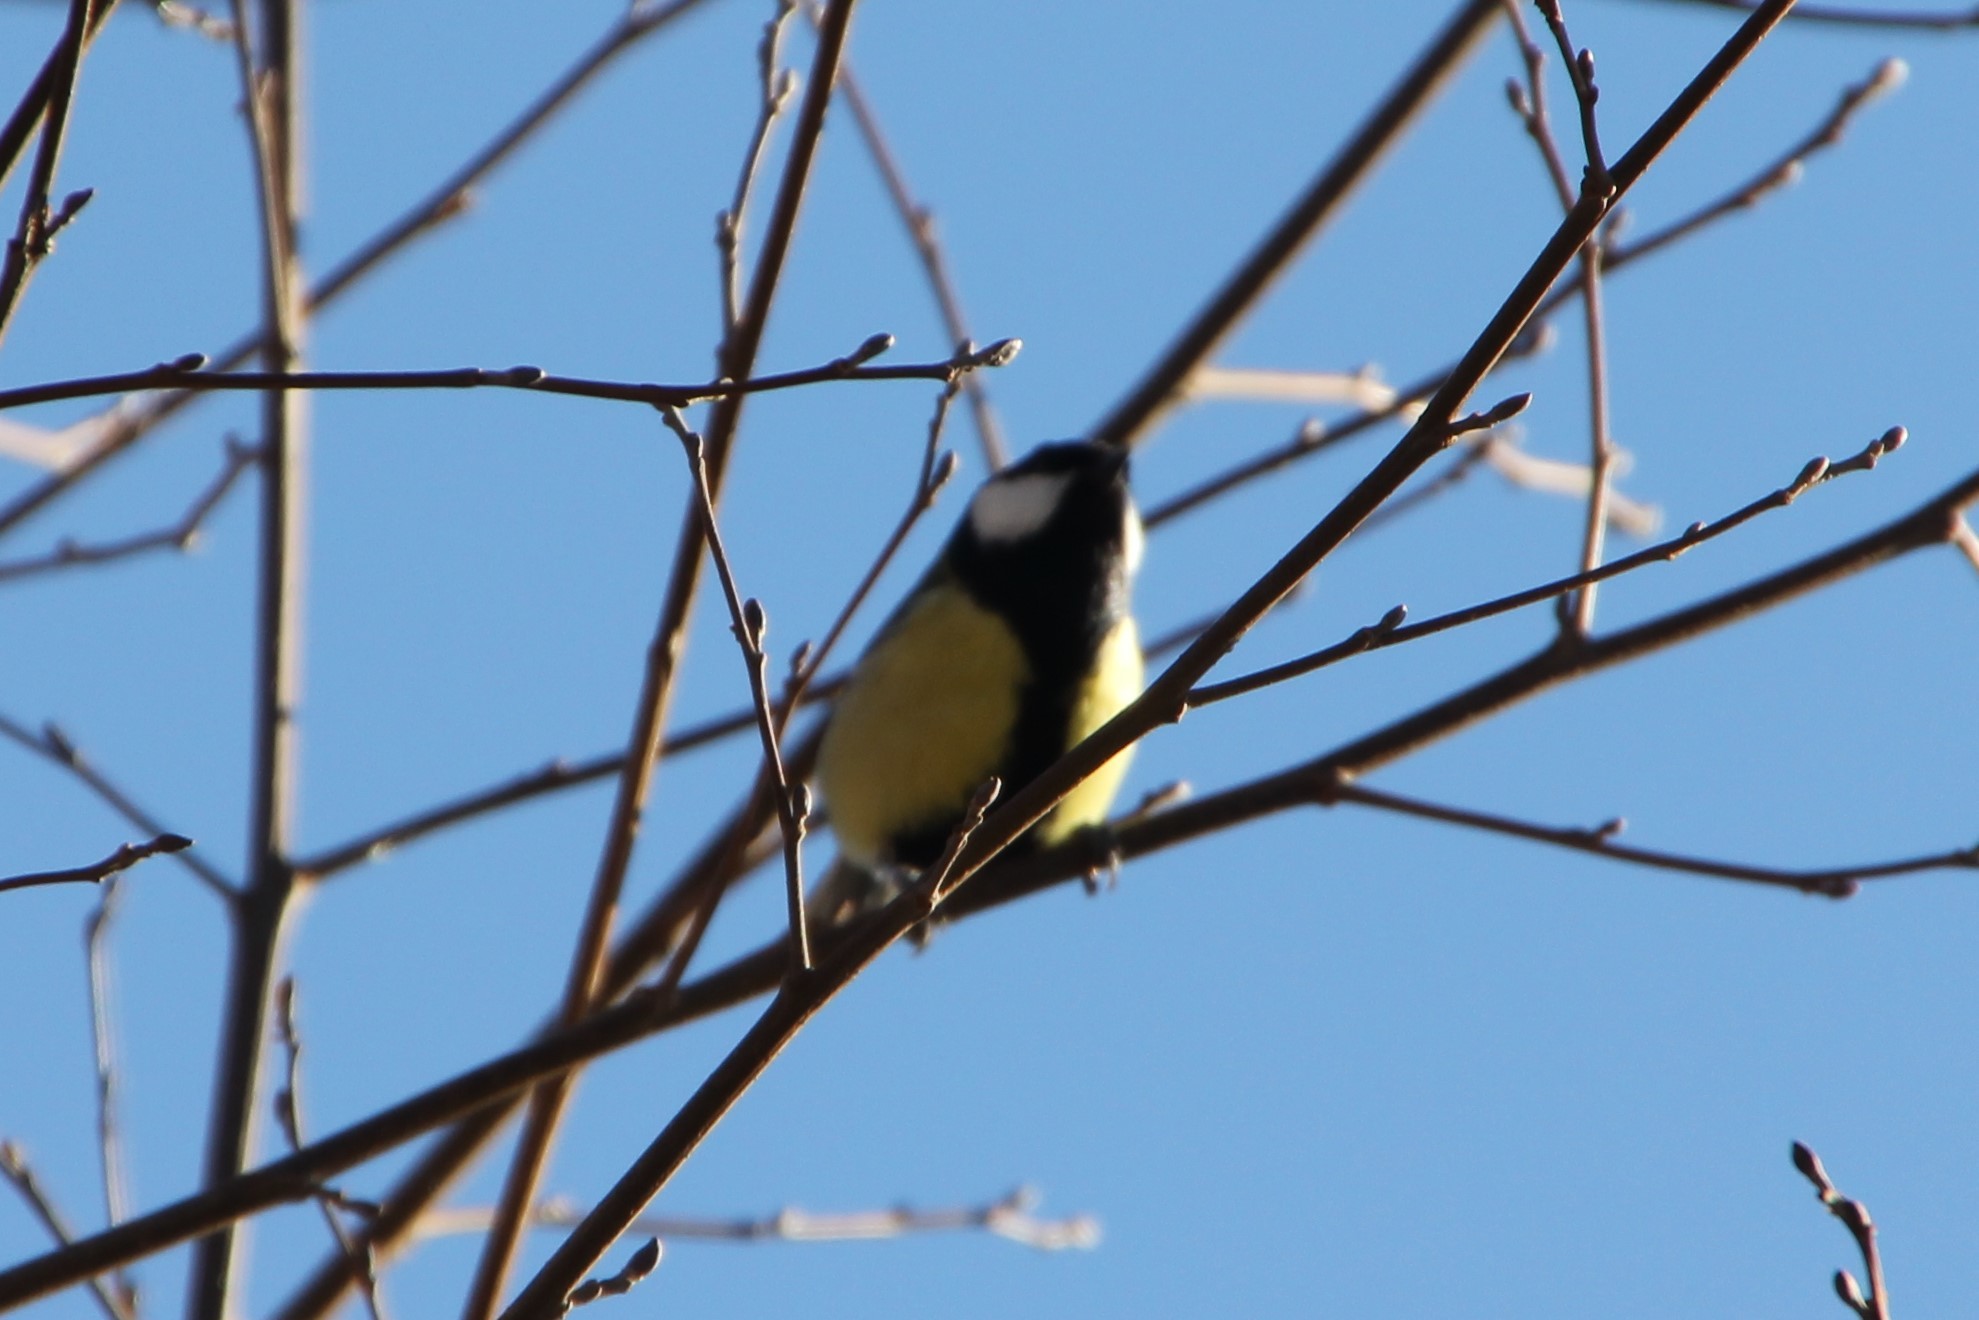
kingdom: Animalia
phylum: Chordata
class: Aves
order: Passeriformes
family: Paridae
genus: Parus
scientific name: Parus major
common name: Great tit
